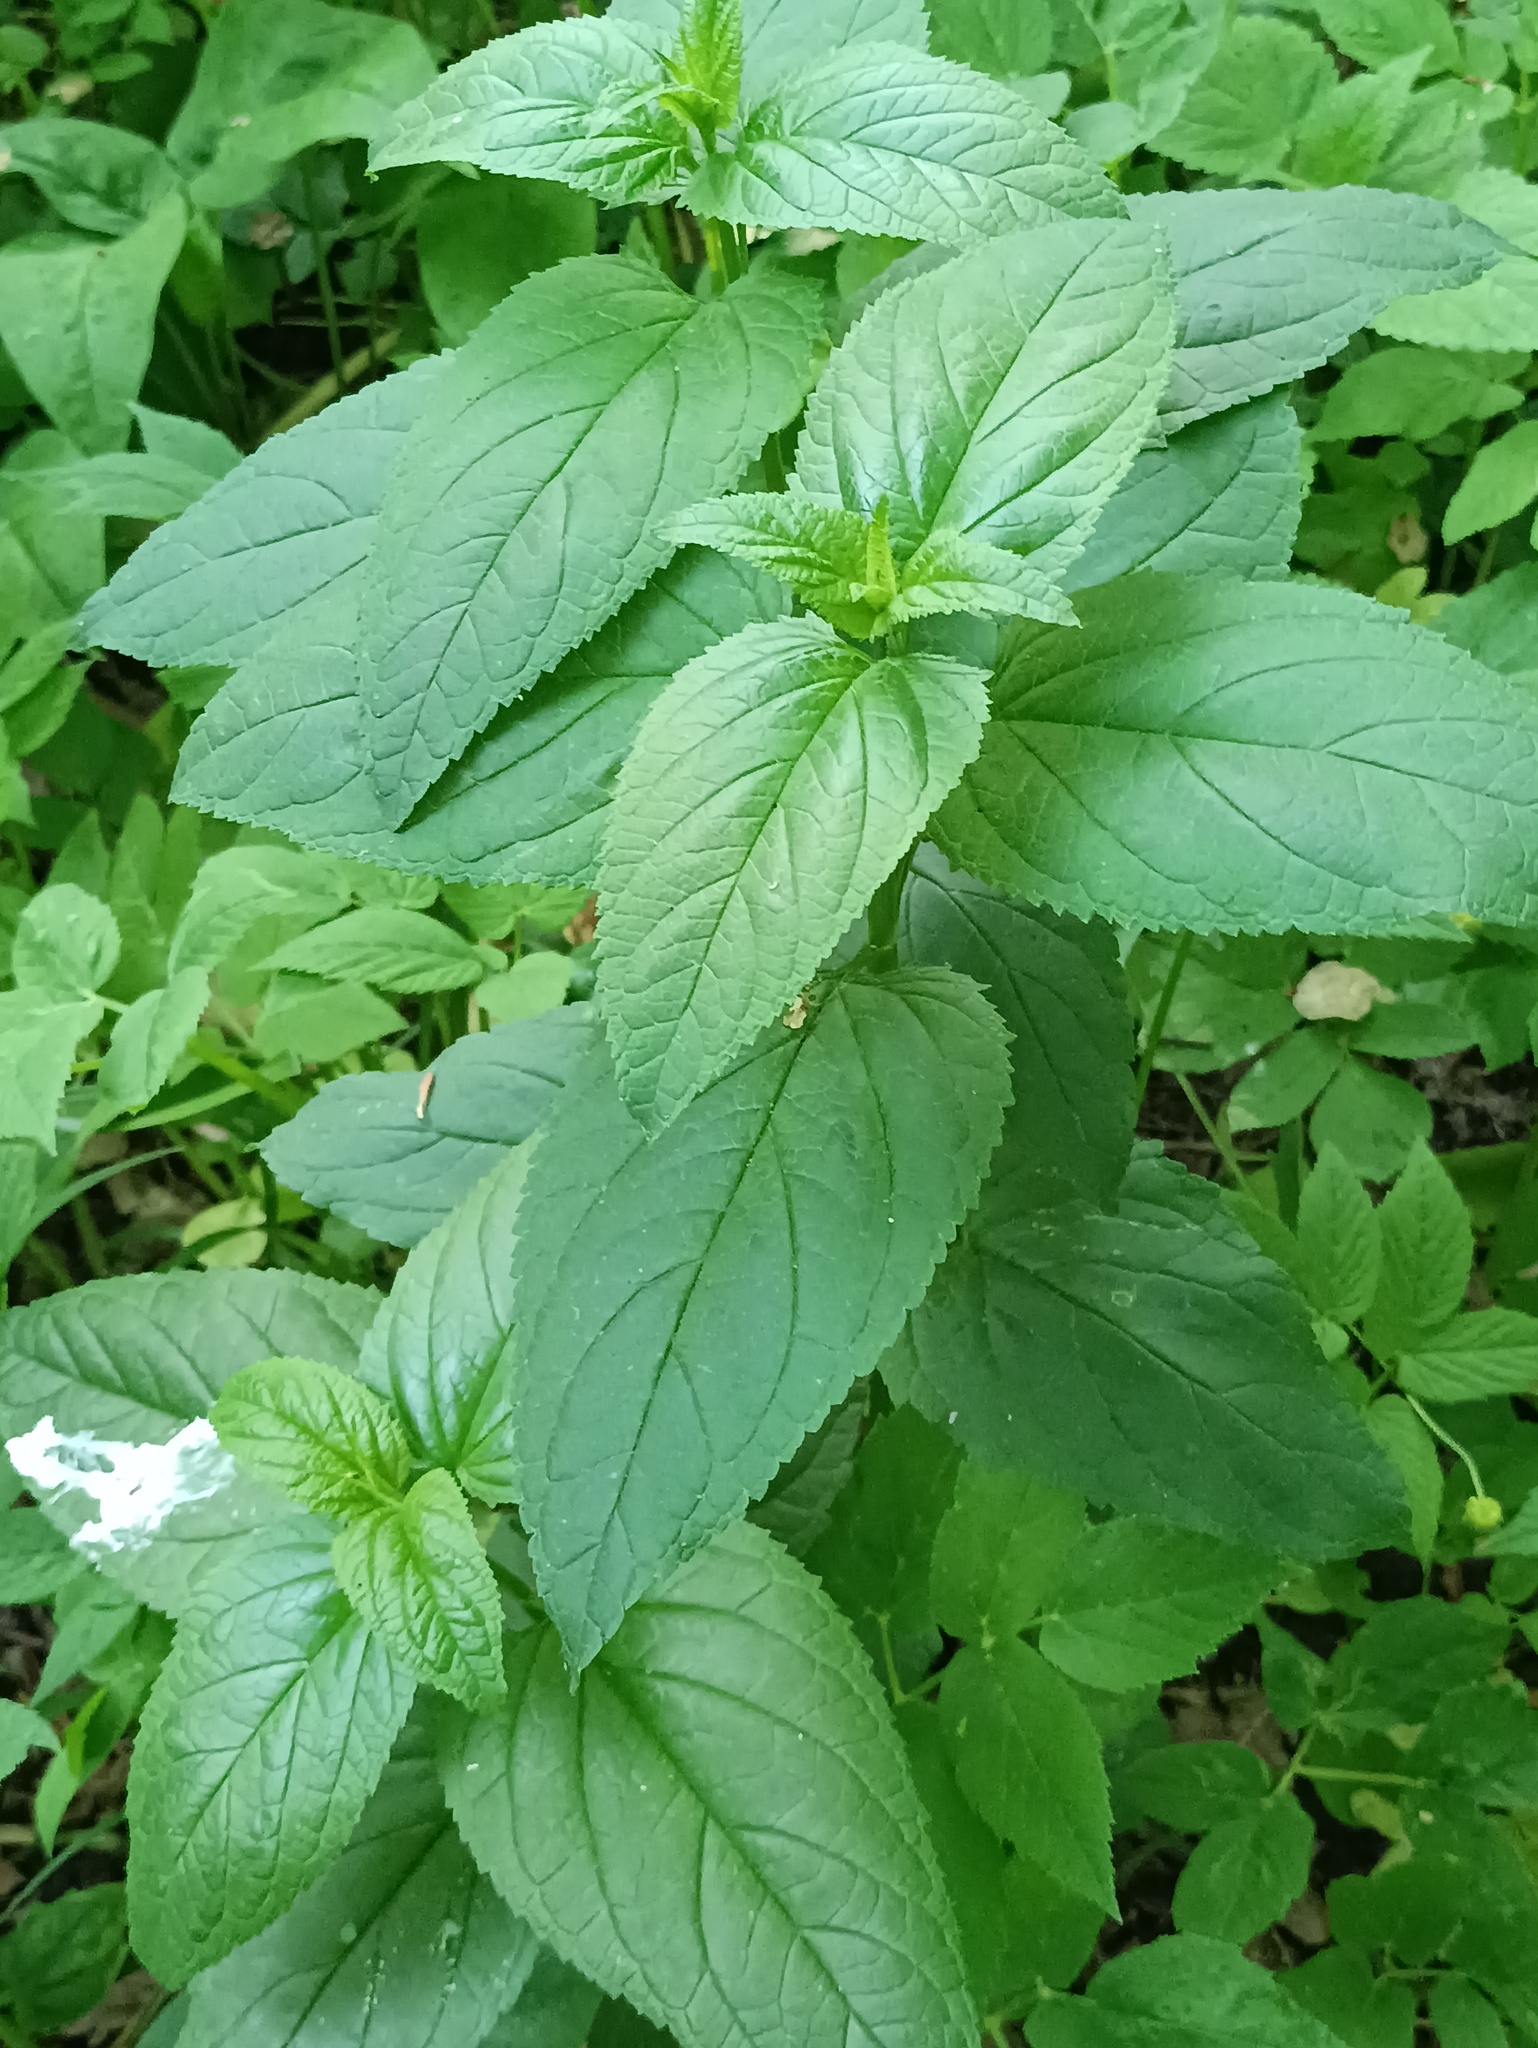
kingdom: Plantae
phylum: Tracheophyta
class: Magnoliopsida
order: Lamiales
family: Scrophulariaceae
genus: Scrophularia
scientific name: Scrophularia nodosa
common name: Common figwort
